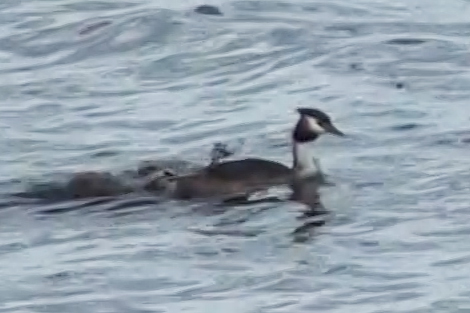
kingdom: Animalia
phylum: Chordata
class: Aves
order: Podicipediformes
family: Podicipedidae
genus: Podiceps
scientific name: Podiceps cristatus
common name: Great crested grebe
